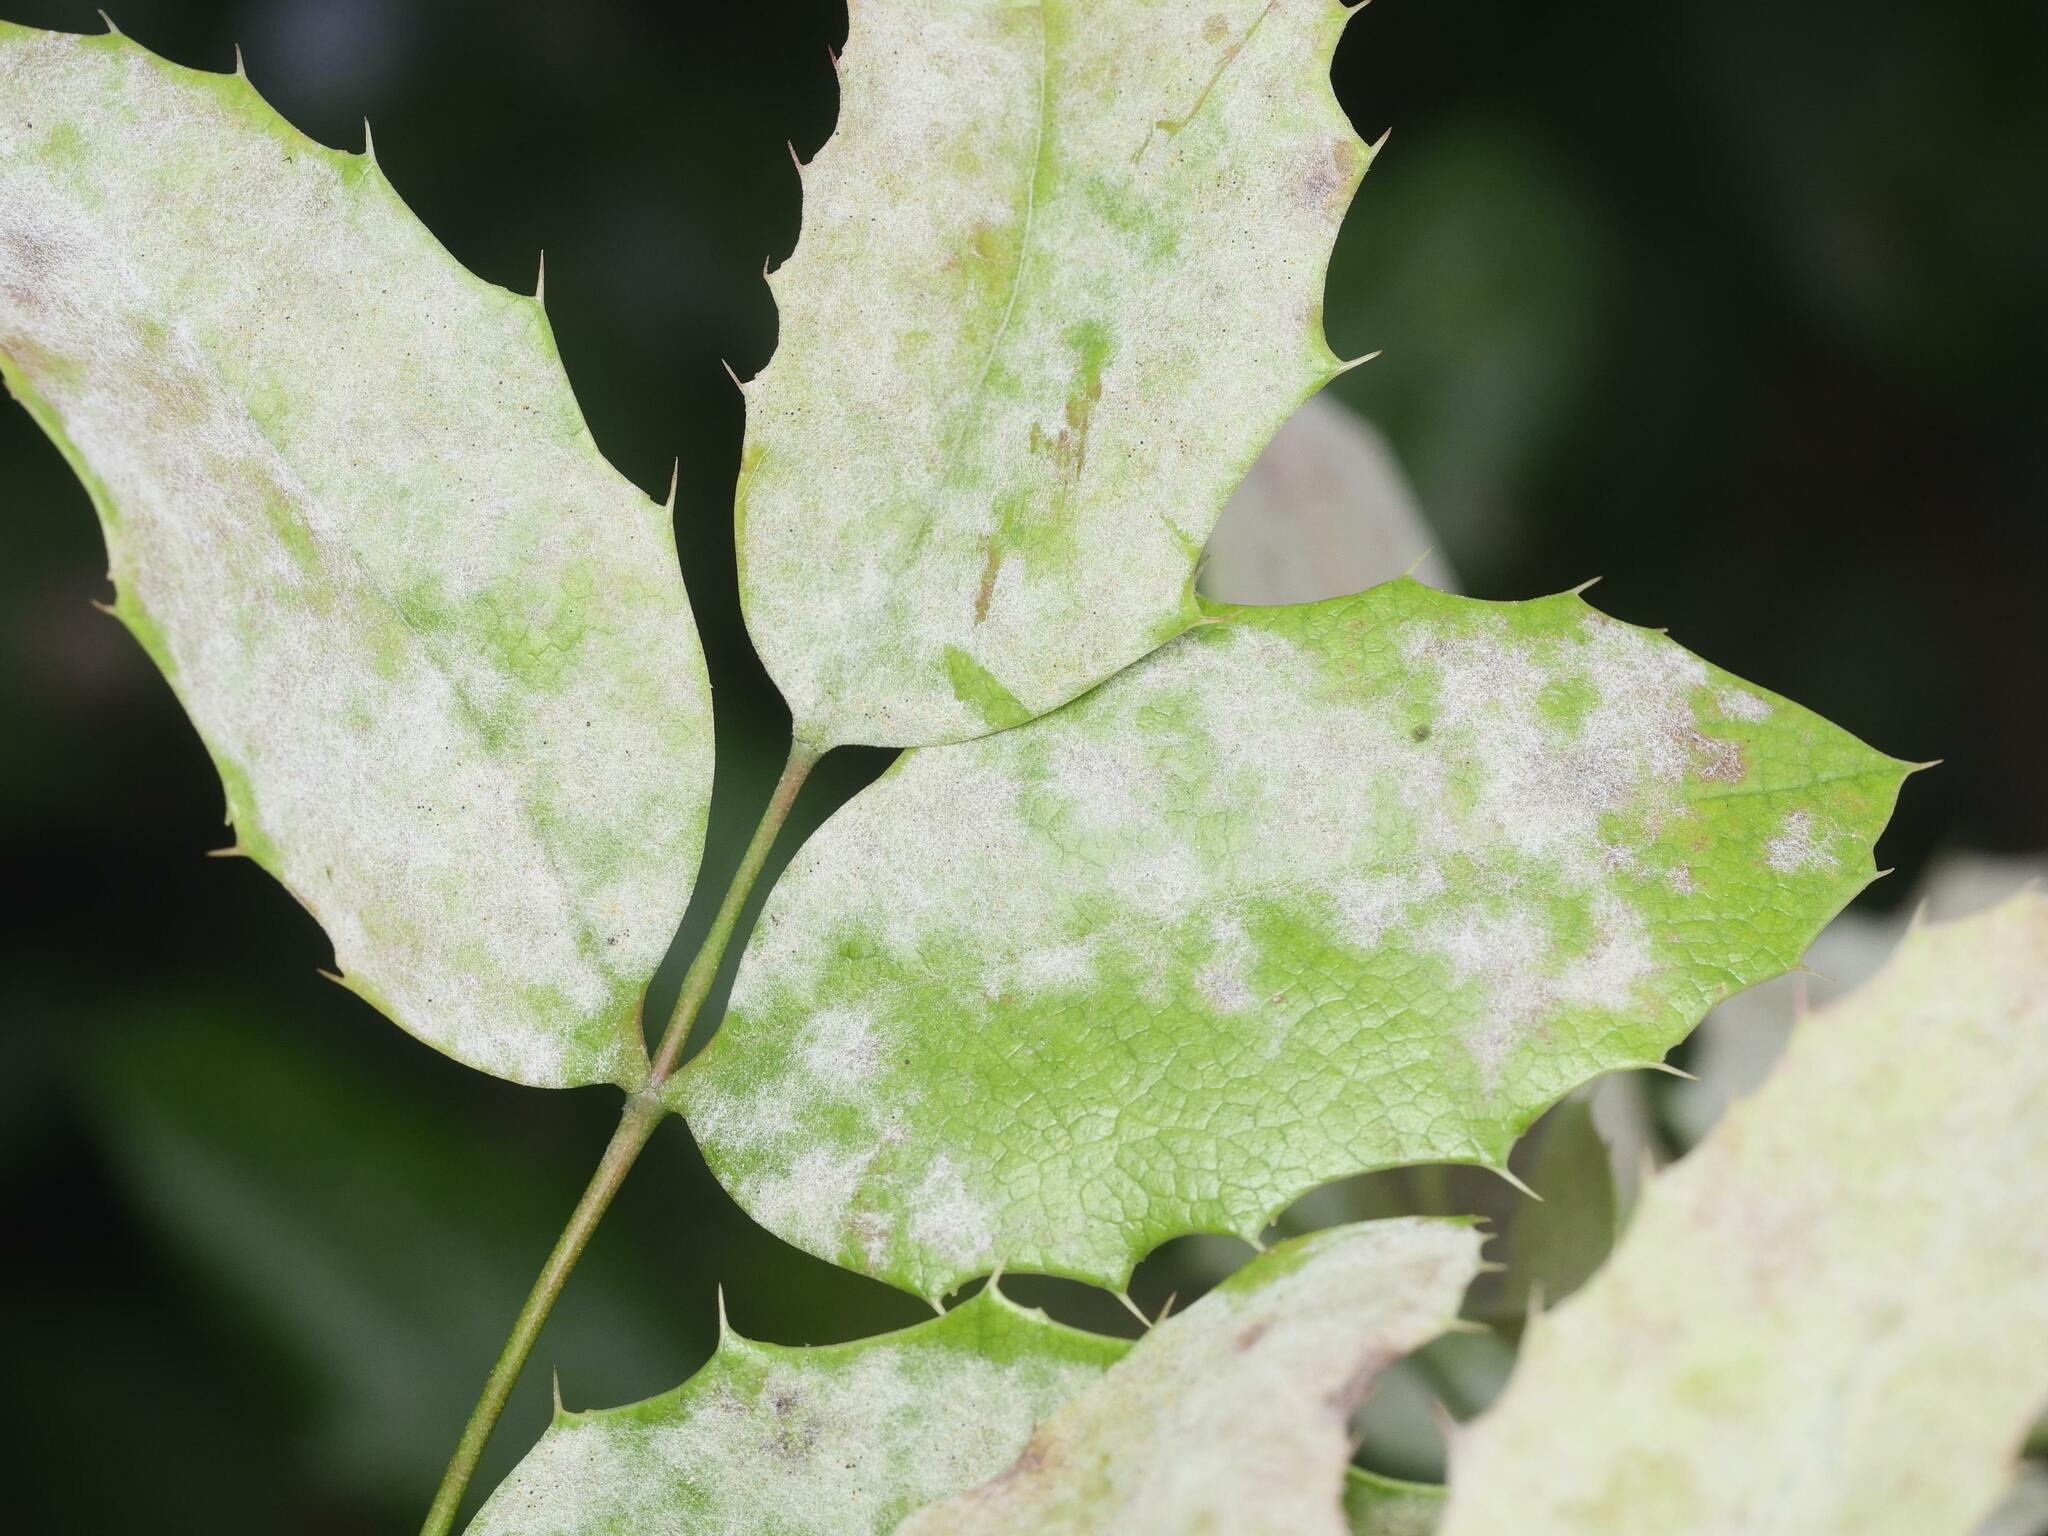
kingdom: Fungi
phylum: Ascomycota
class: Leotiomycetes
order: Helotiales
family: Erysiphaceae
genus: Erysiphe
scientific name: Erysiphe berberidis
